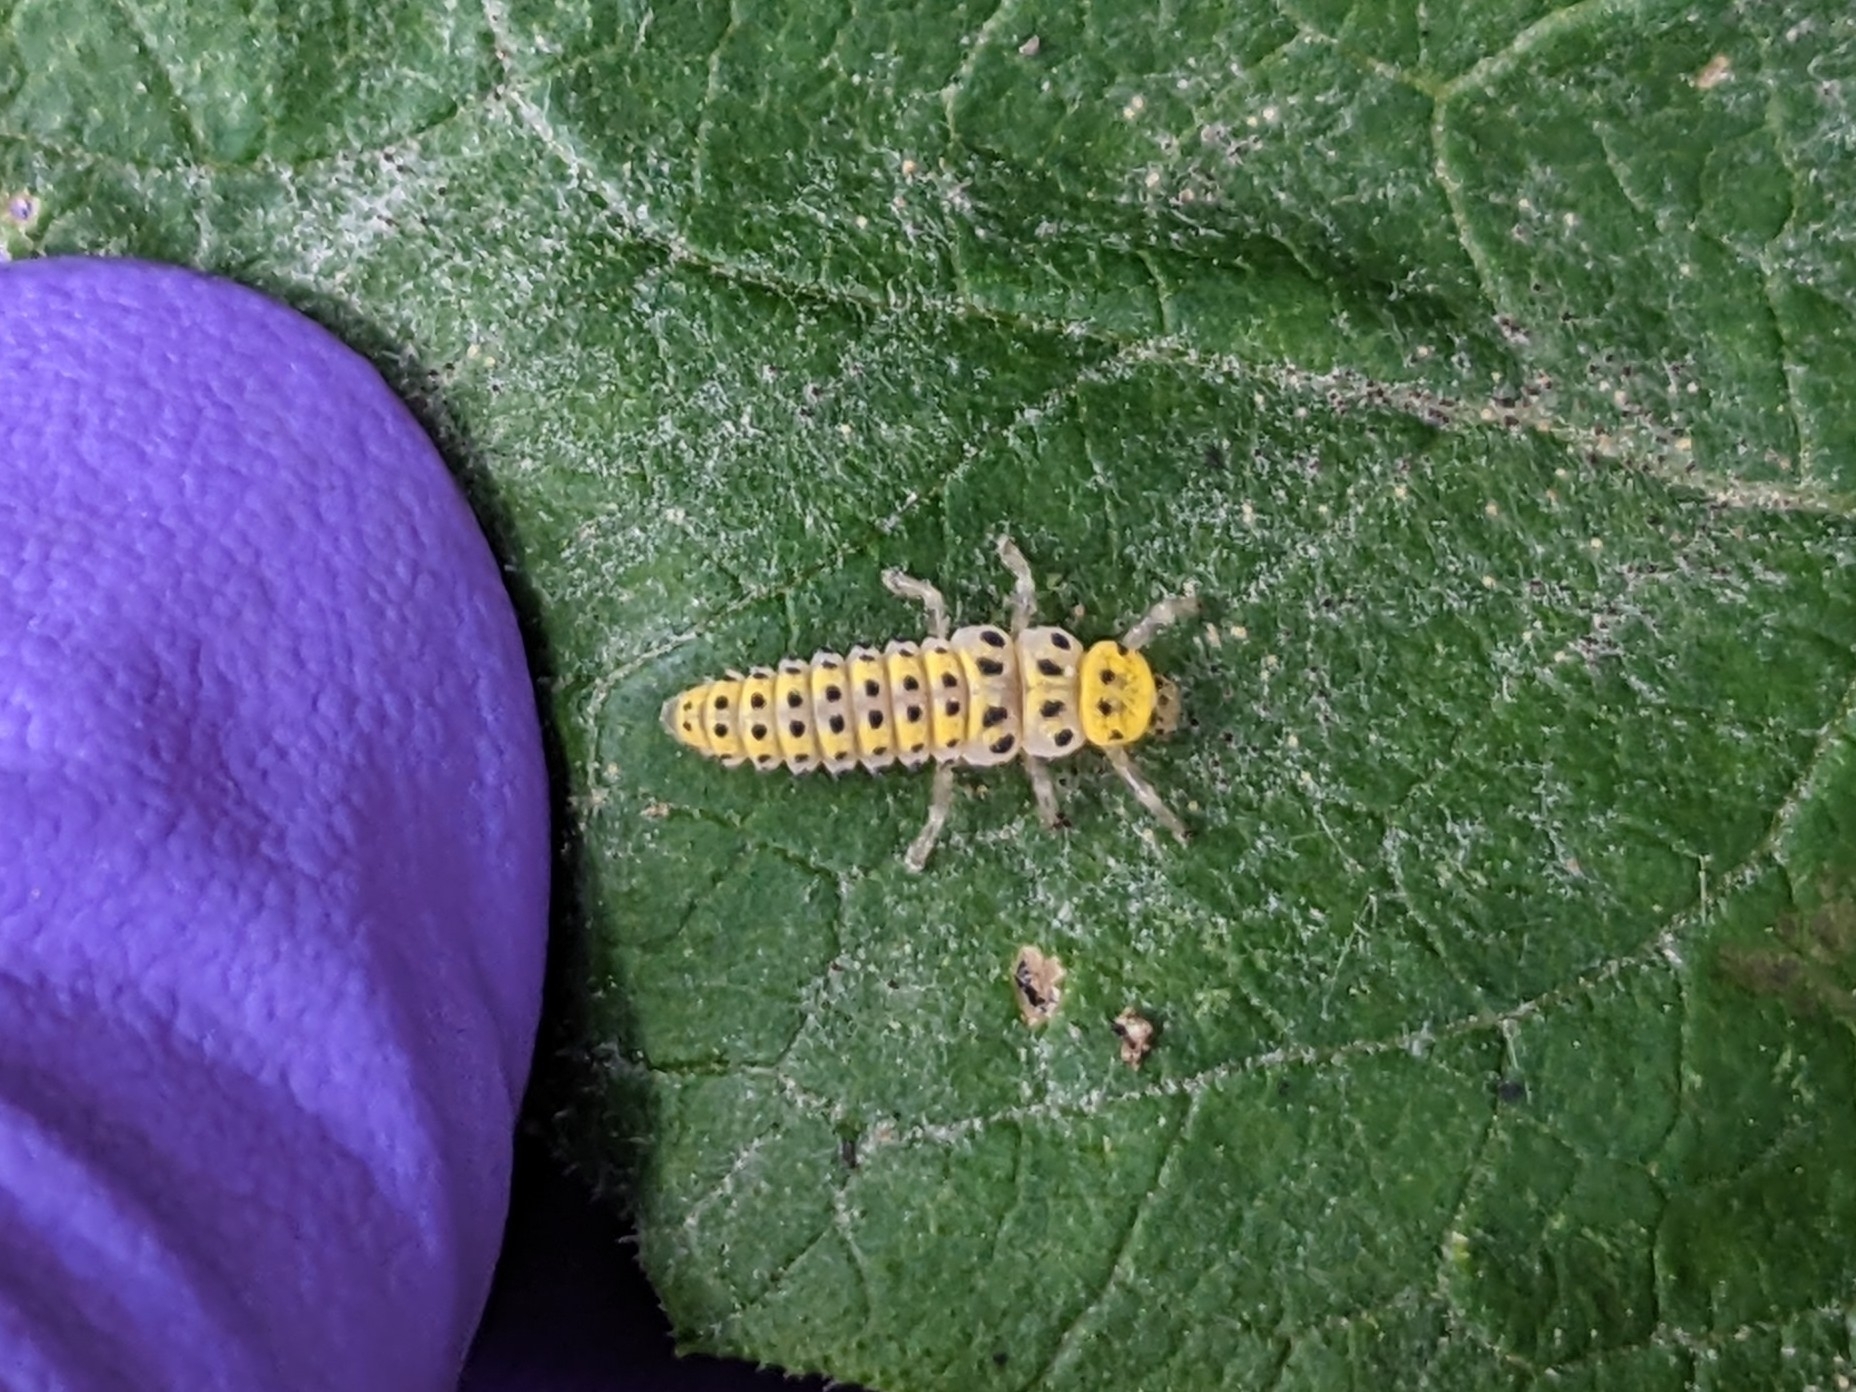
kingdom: Animalia
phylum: Arthropoda
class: Insecta
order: Coleoptera
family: Coccinellidae
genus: Halyzia
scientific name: Halyzia sedecimguttata
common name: Orange ladybird
